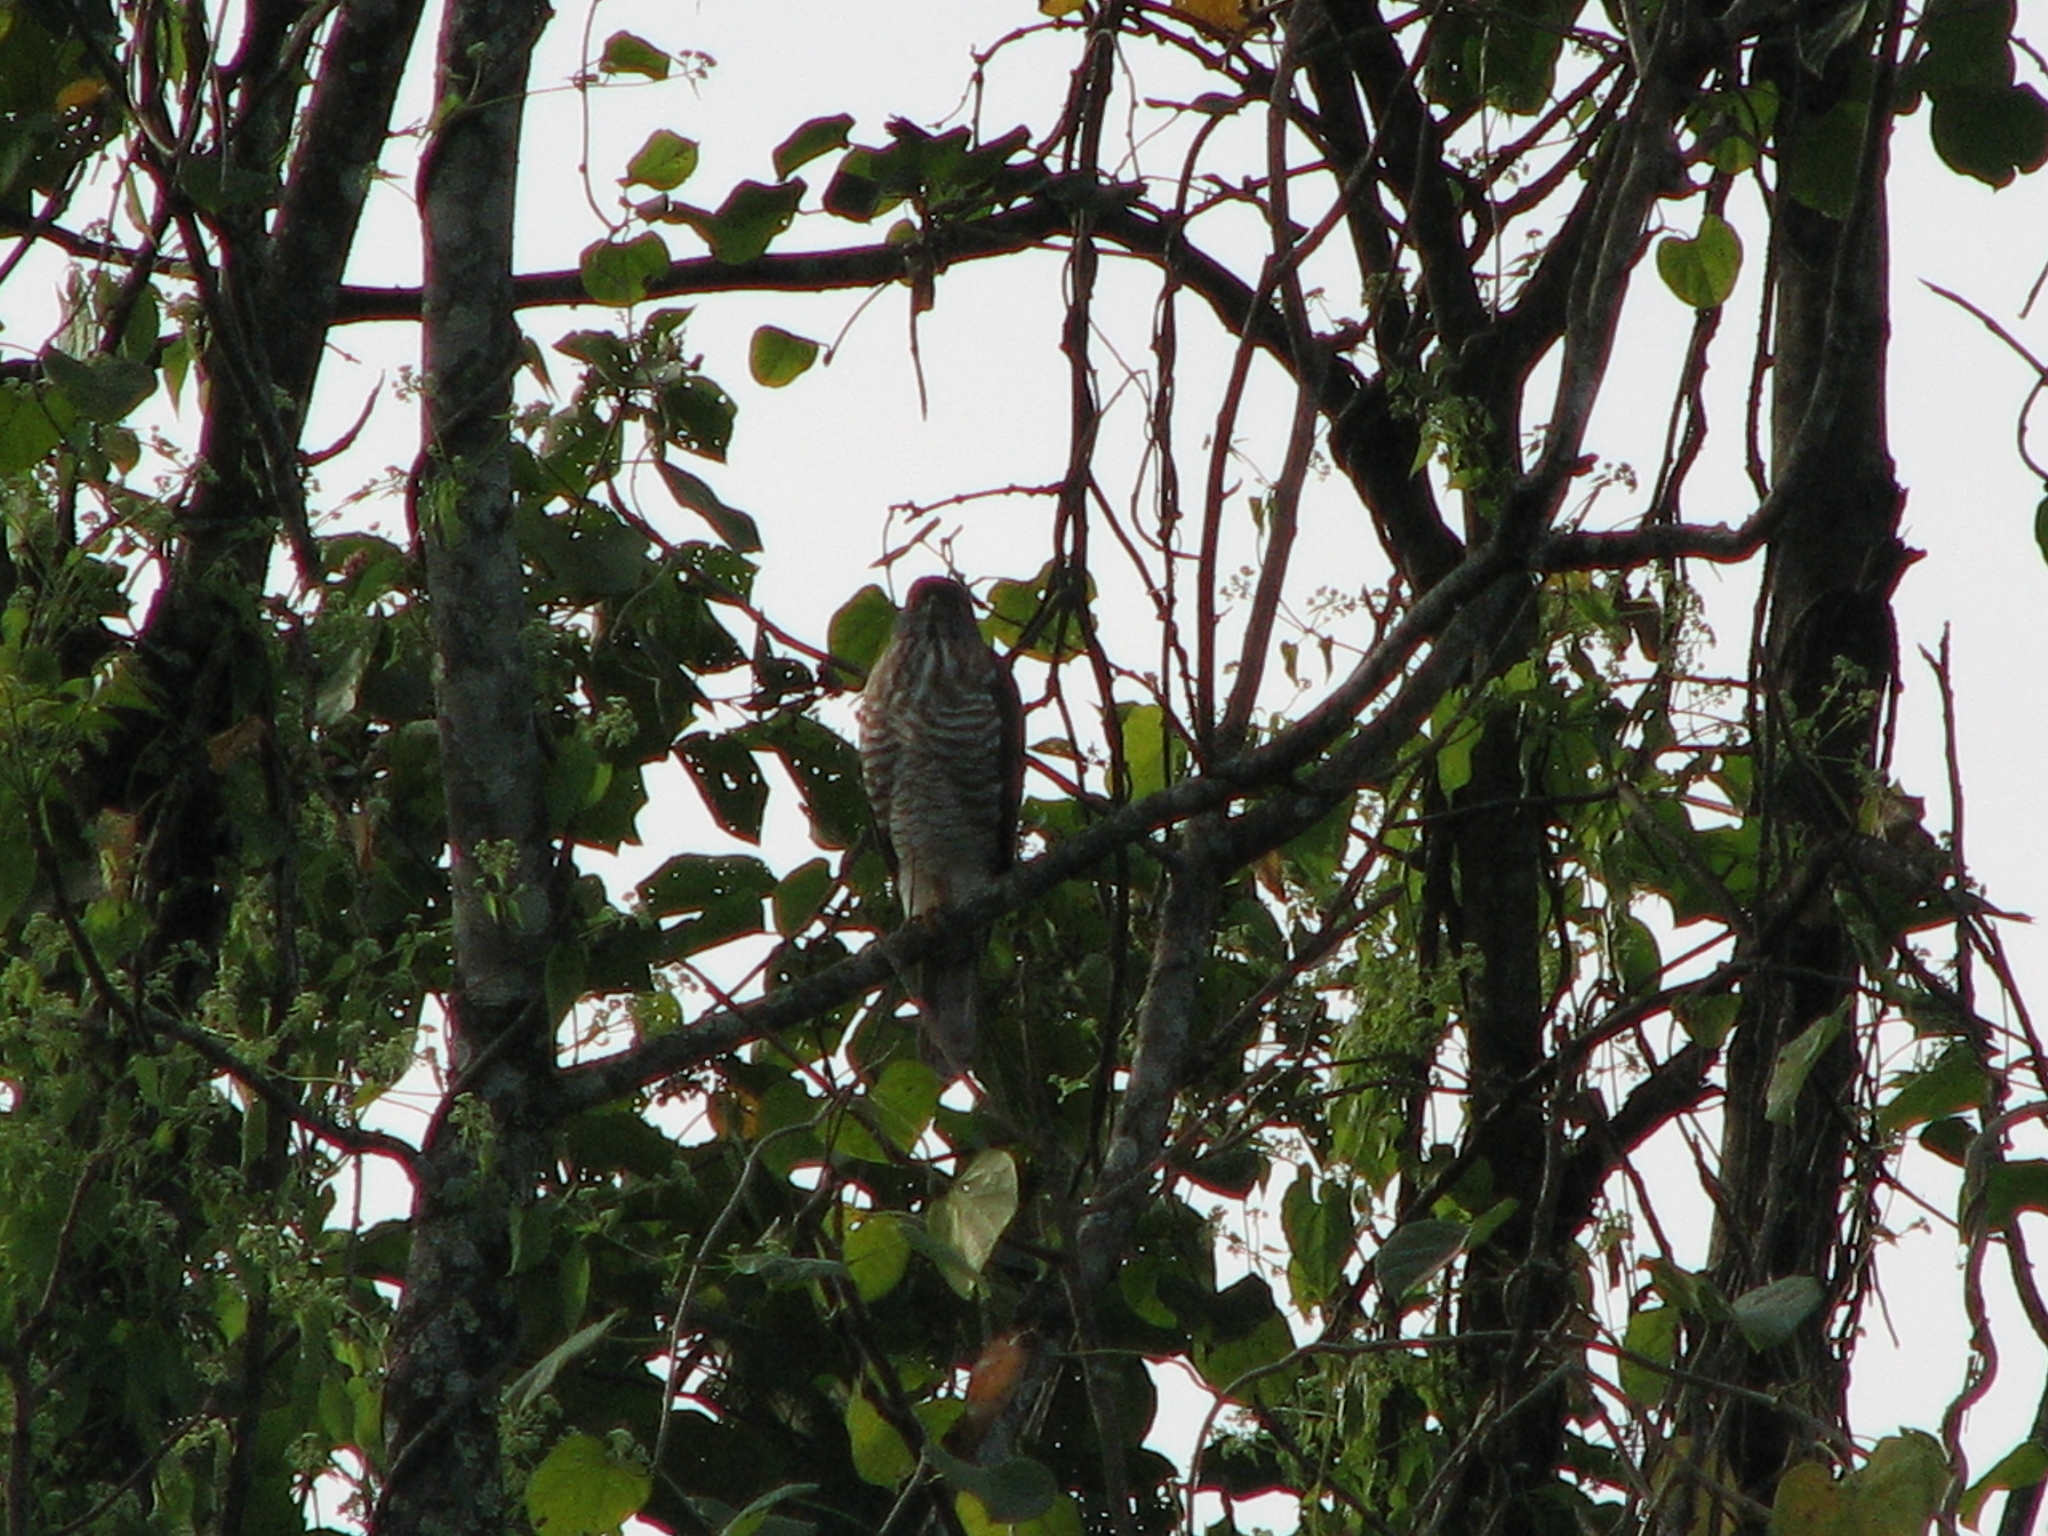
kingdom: Animalia
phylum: Chordata
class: Aves
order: Accipitriformes
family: Accipitridae
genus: Accipiter
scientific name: Accipiter trivirgatus
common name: Crested goshawk
